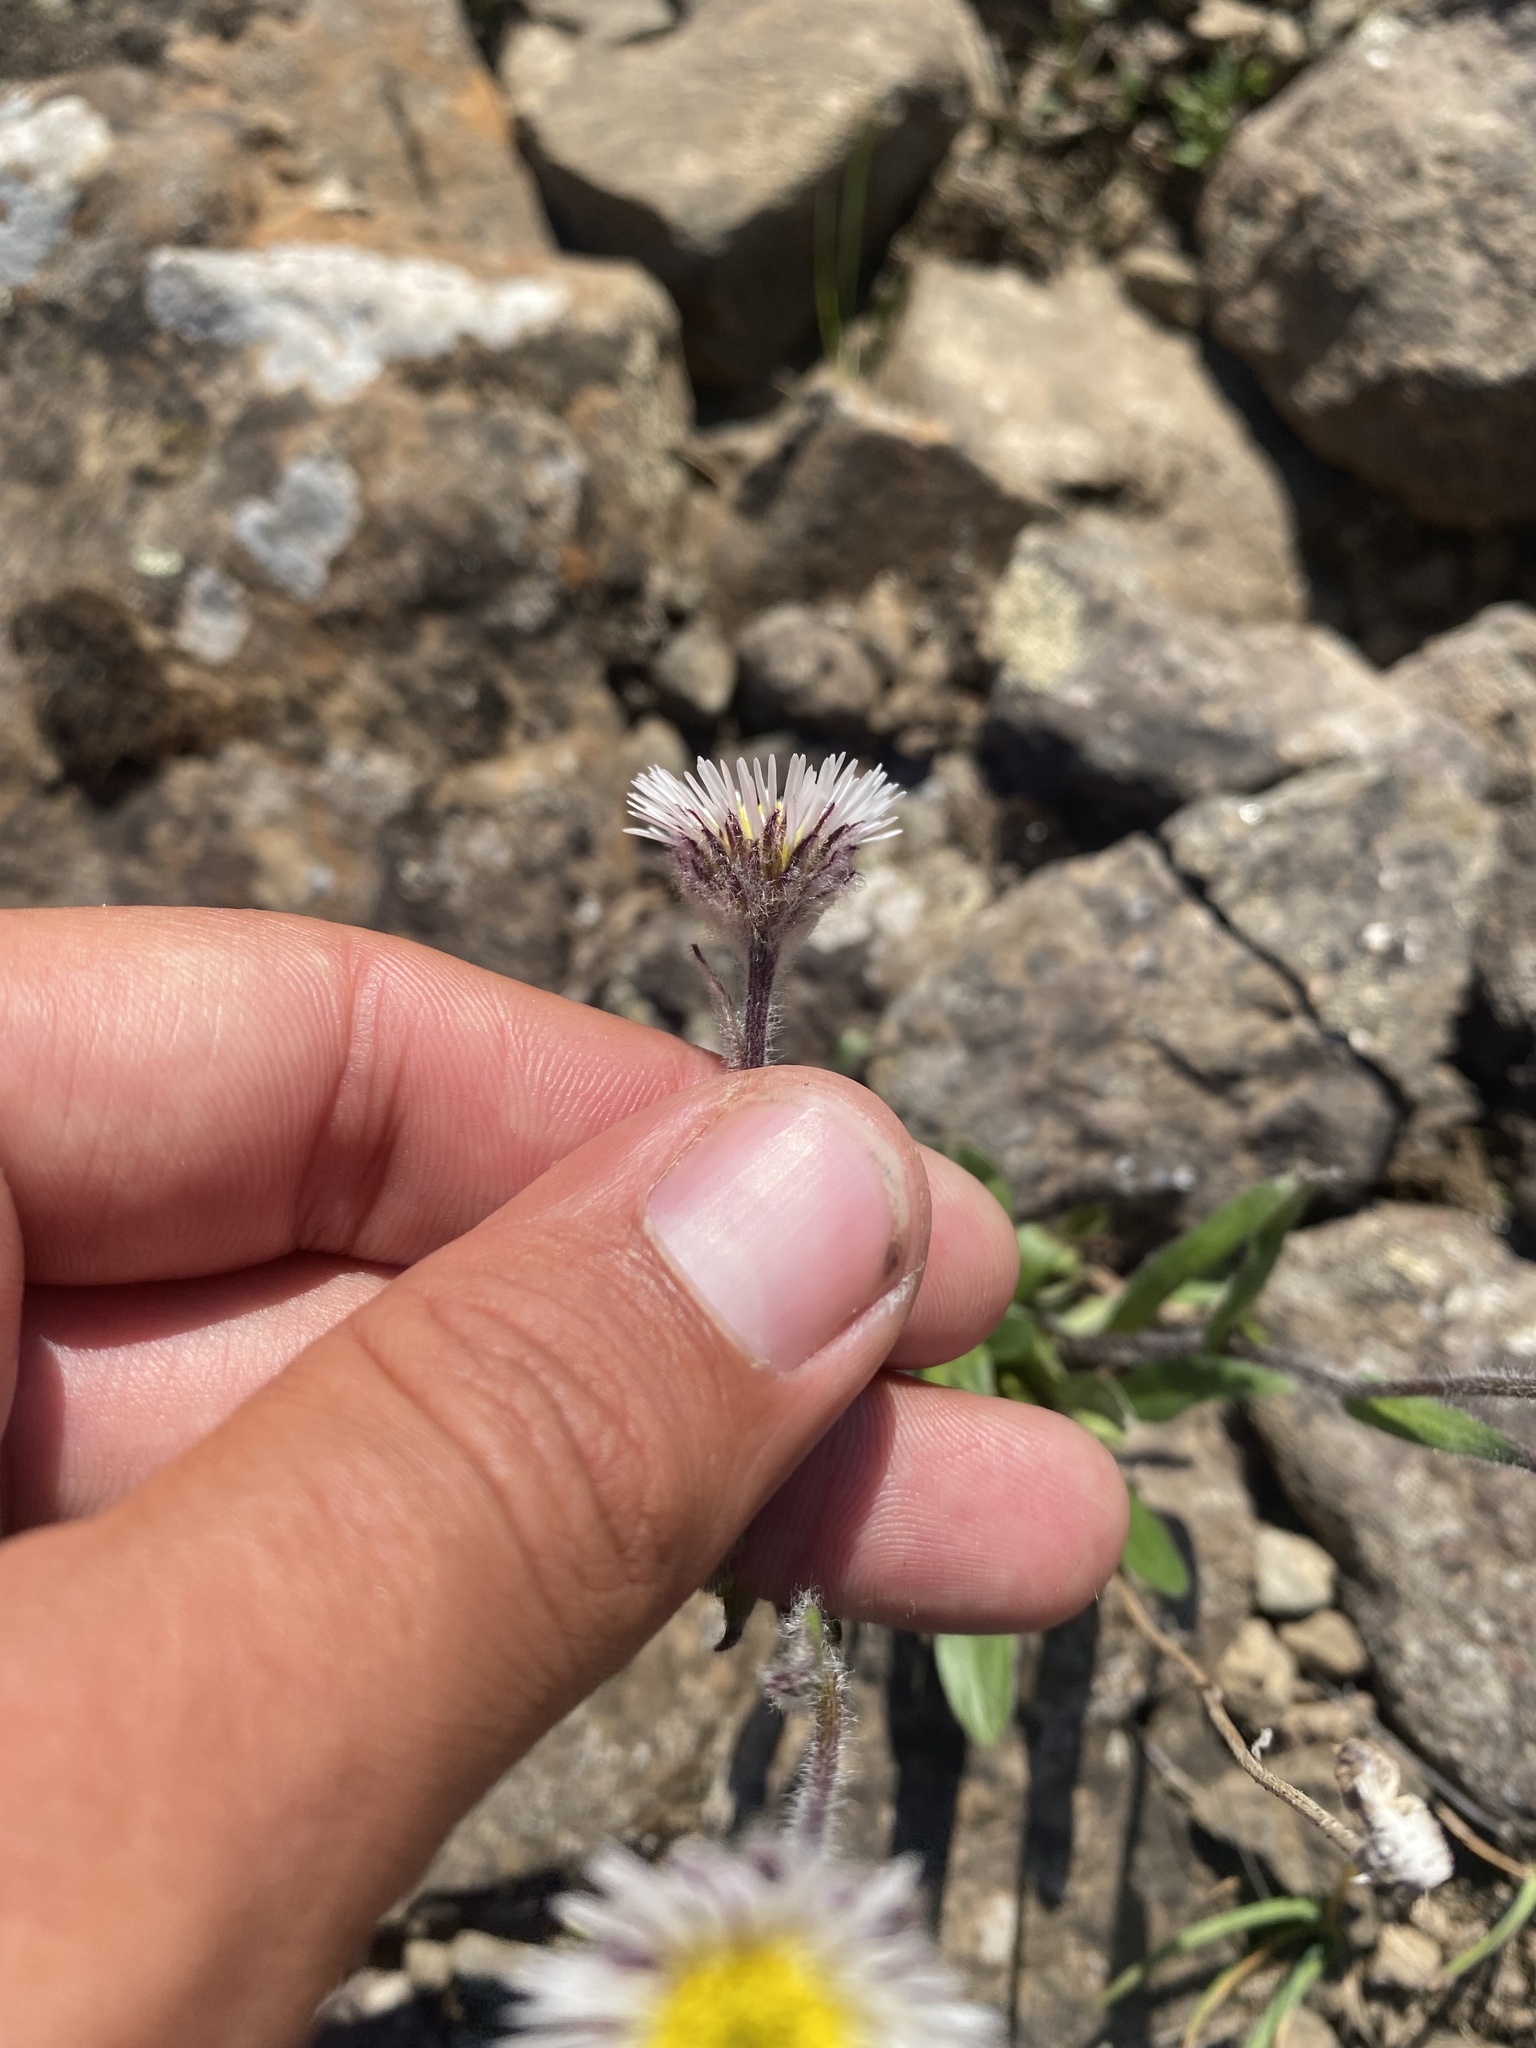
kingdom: Plantae
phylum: Tracheophyta
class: Magnoliopsida
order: Asterales
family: Asteraceae
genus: Erigeron
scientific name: Erigeron eriocalyx
